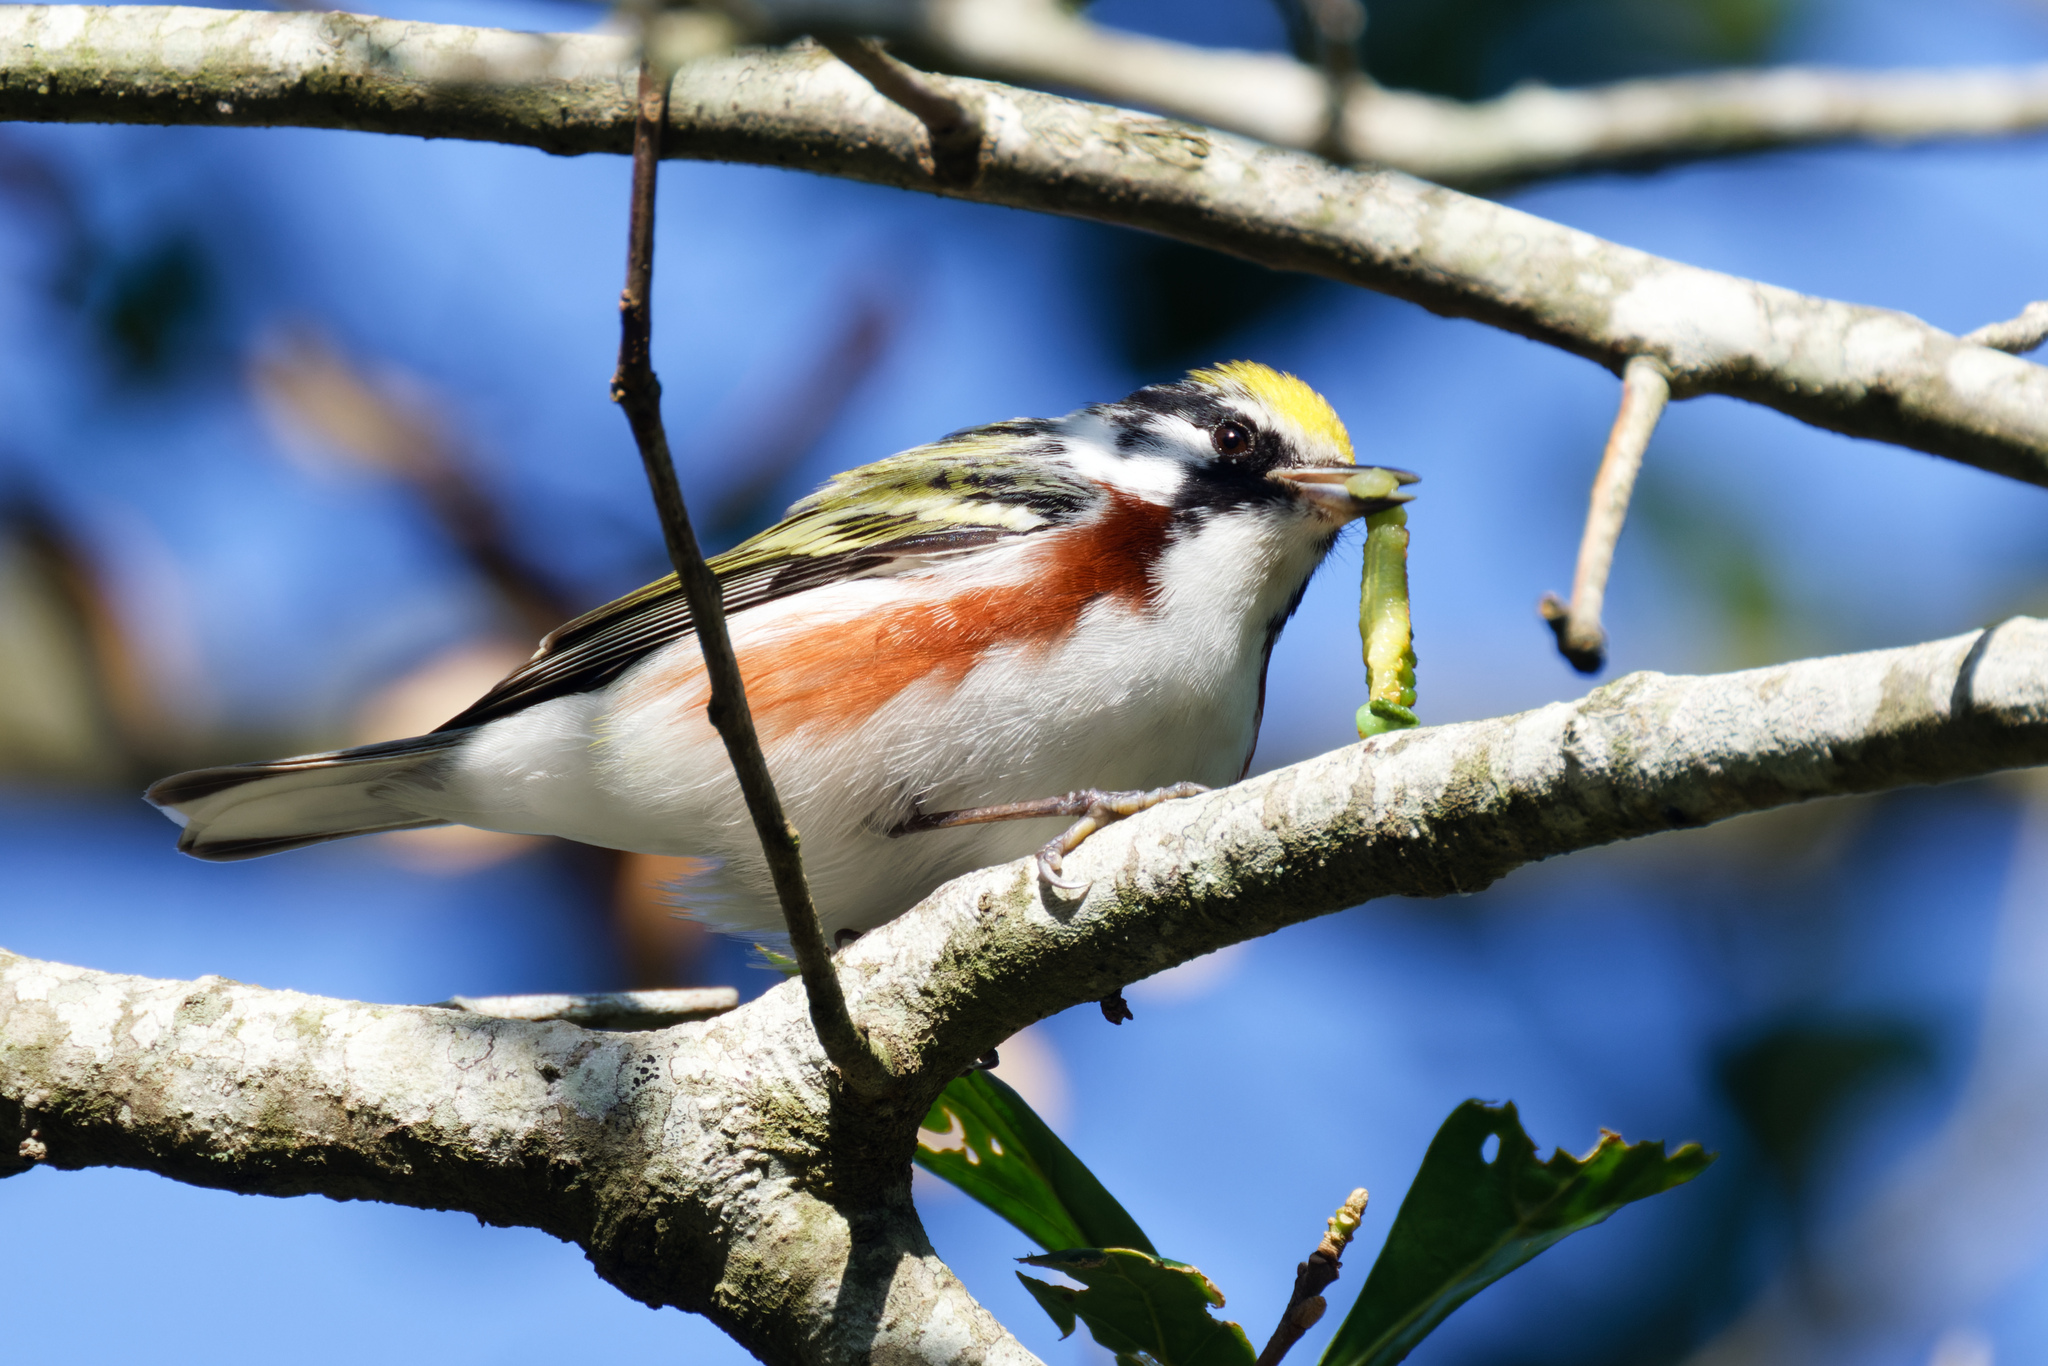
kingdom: Animalia
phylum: Chordata
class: Aves
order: Passeriformes
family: Parulidae
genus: Setophaga
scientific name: Setophaga pensylvanica
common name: Chestnut-sided warbler
